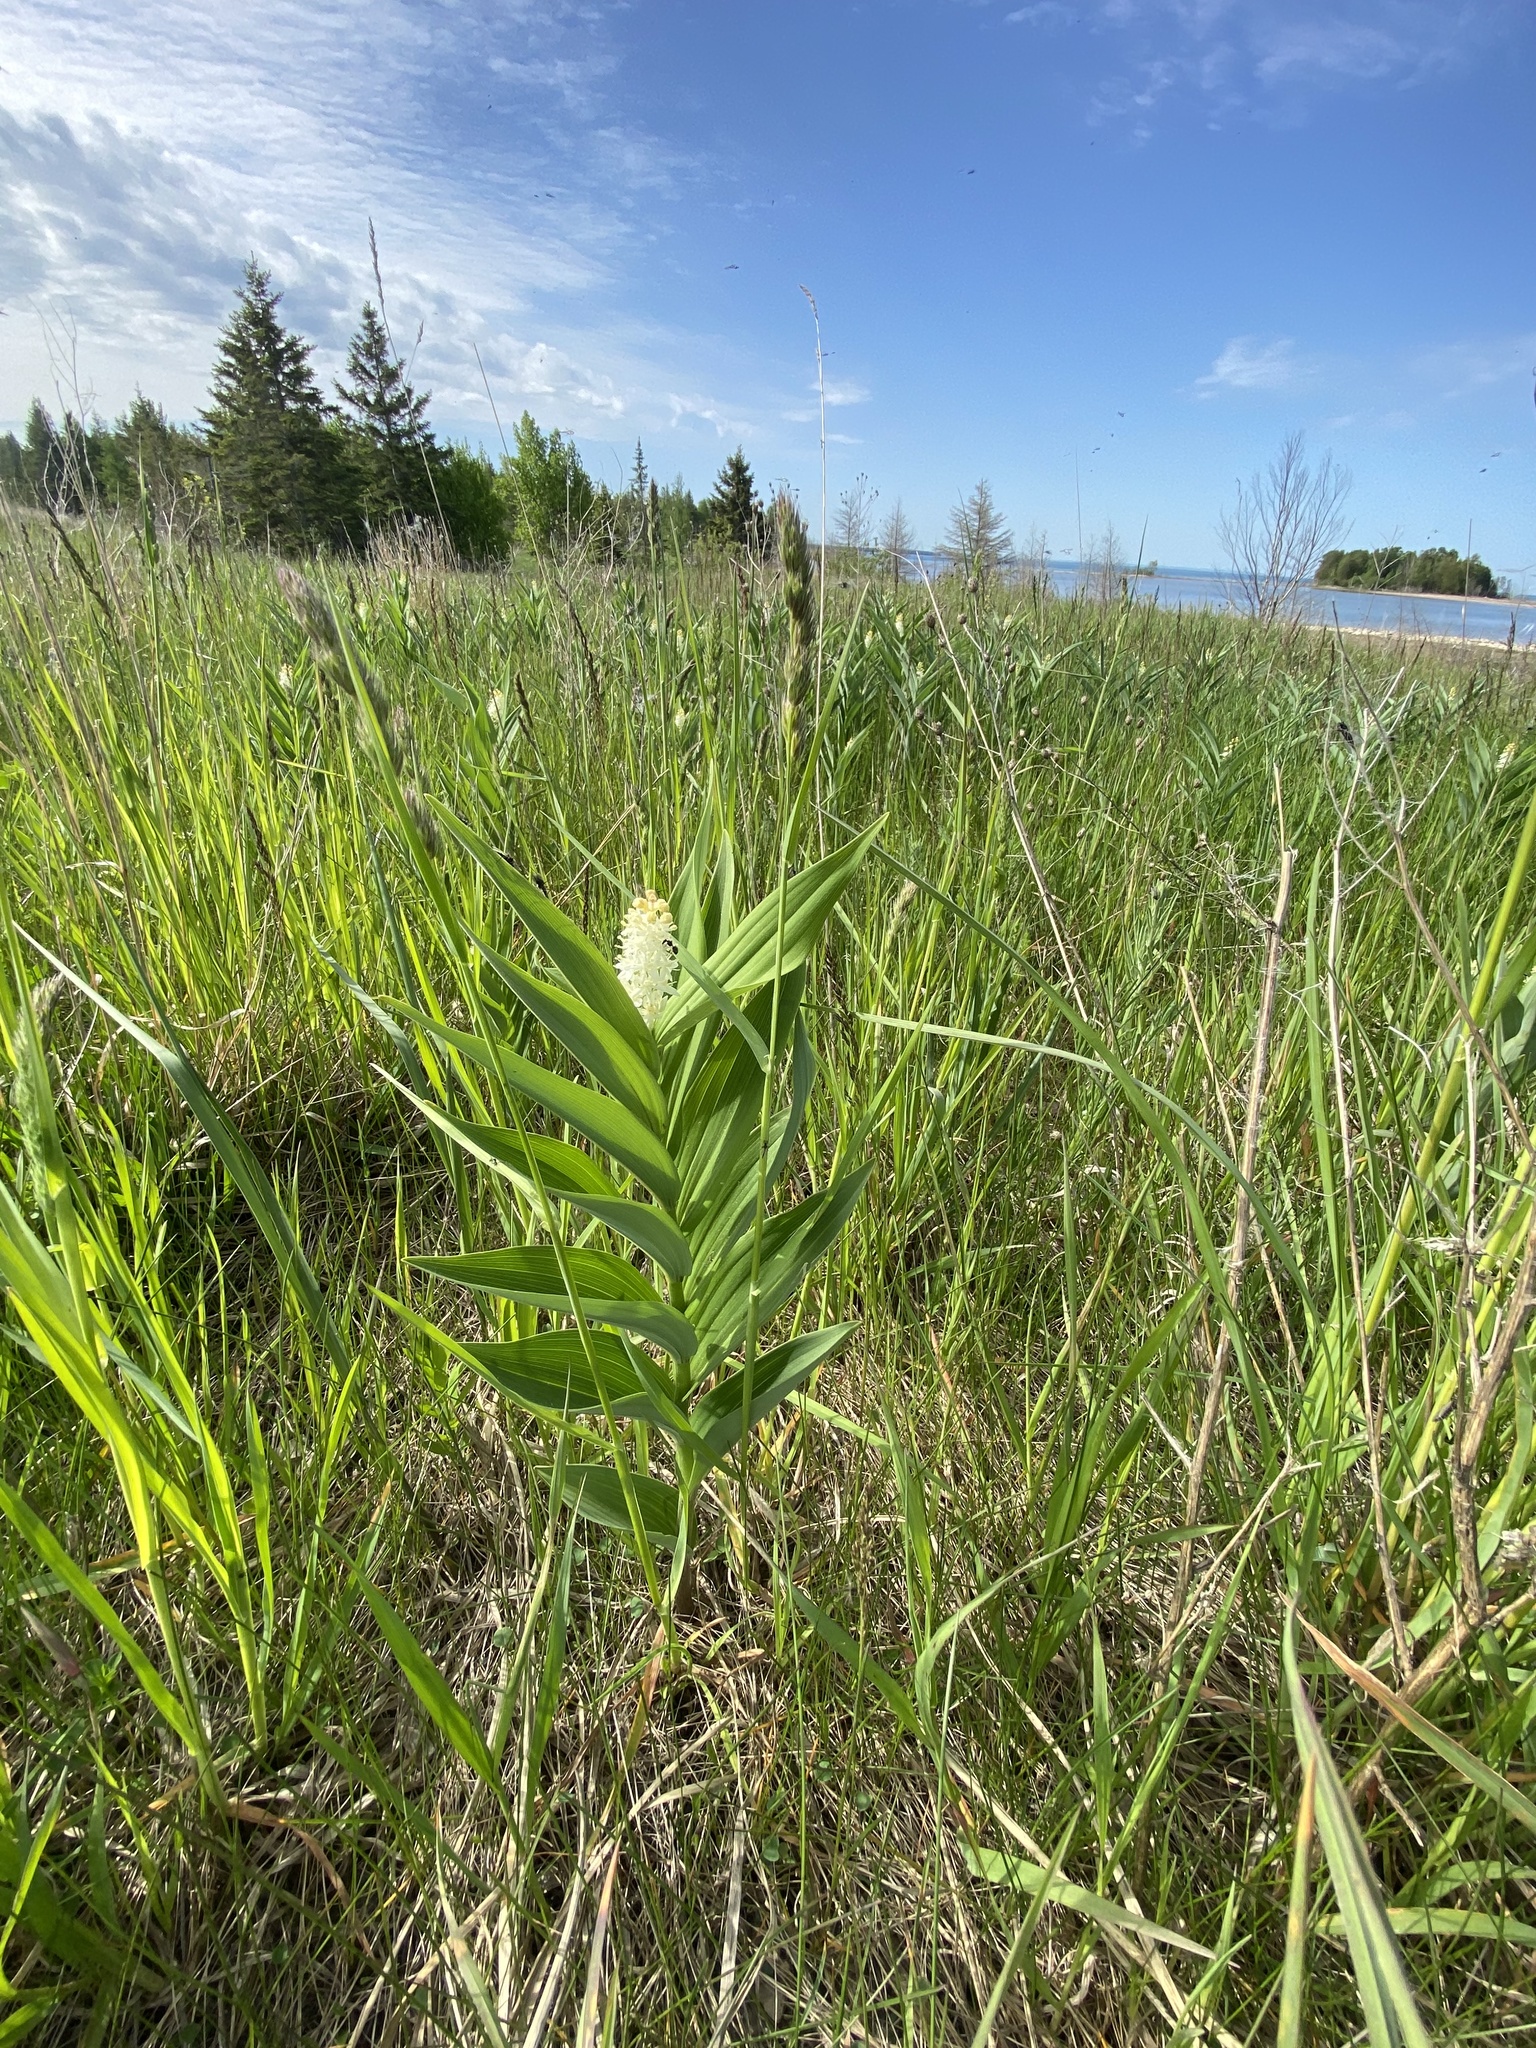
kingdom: Plantae
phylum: Tracheophyta
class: Liliopsida
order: Asparagales
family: Asparagaceae
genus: Maianthemum
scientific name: Maianthemum stellatum
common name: Little false solomon's seal
